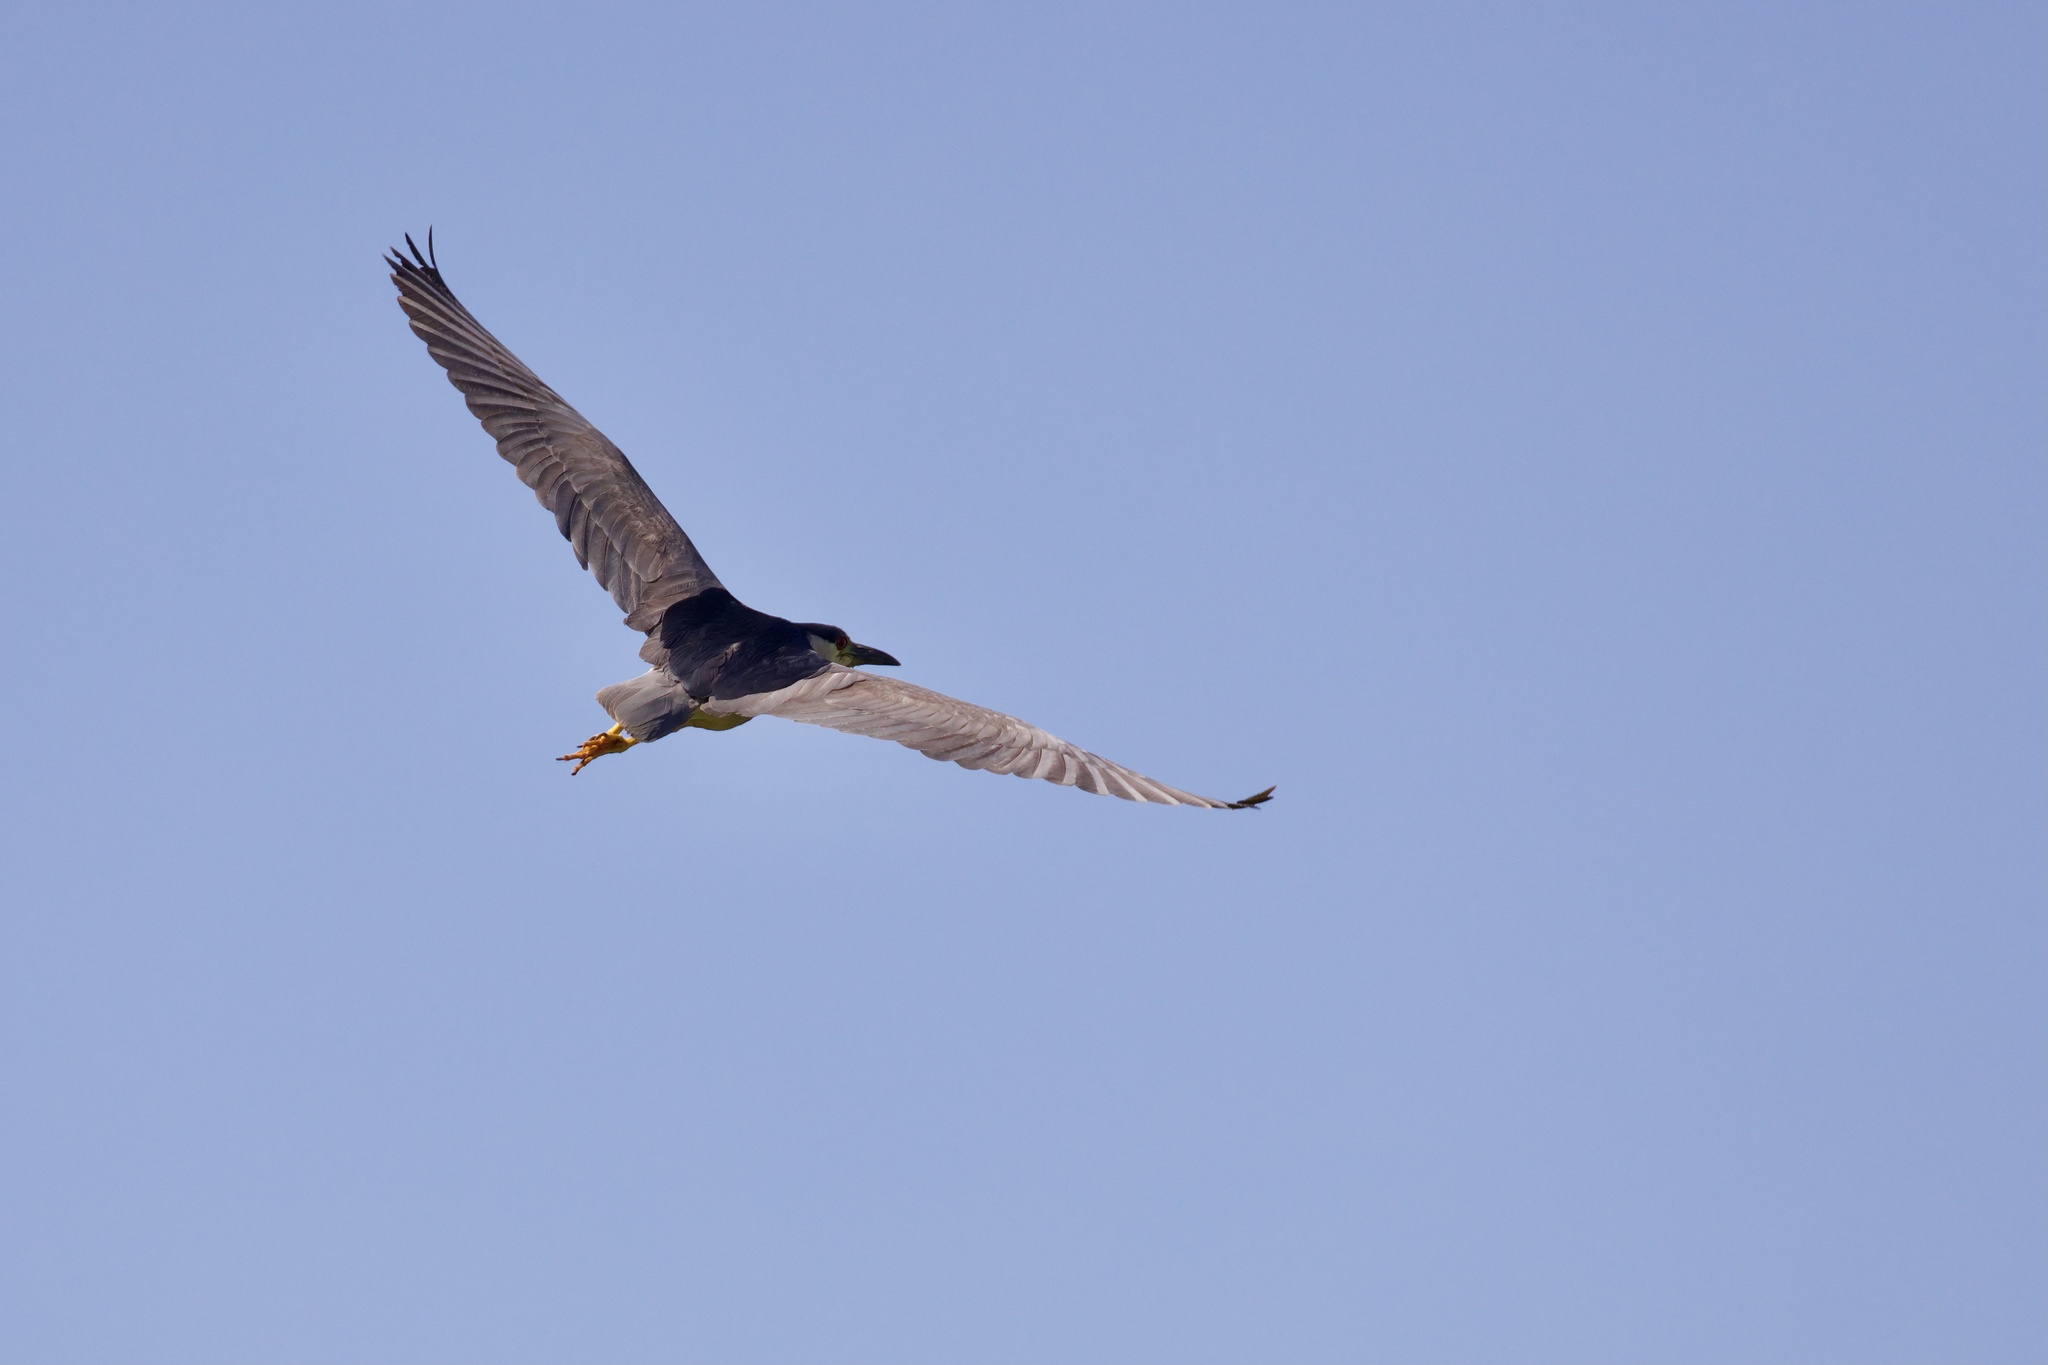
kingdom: Animalia
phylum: Chordata
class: Aves
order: Pelecaniformes
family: Ardeidae
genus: Nycticorax
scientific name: Nycticorax nycticorax
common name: Black-crowned night heron
